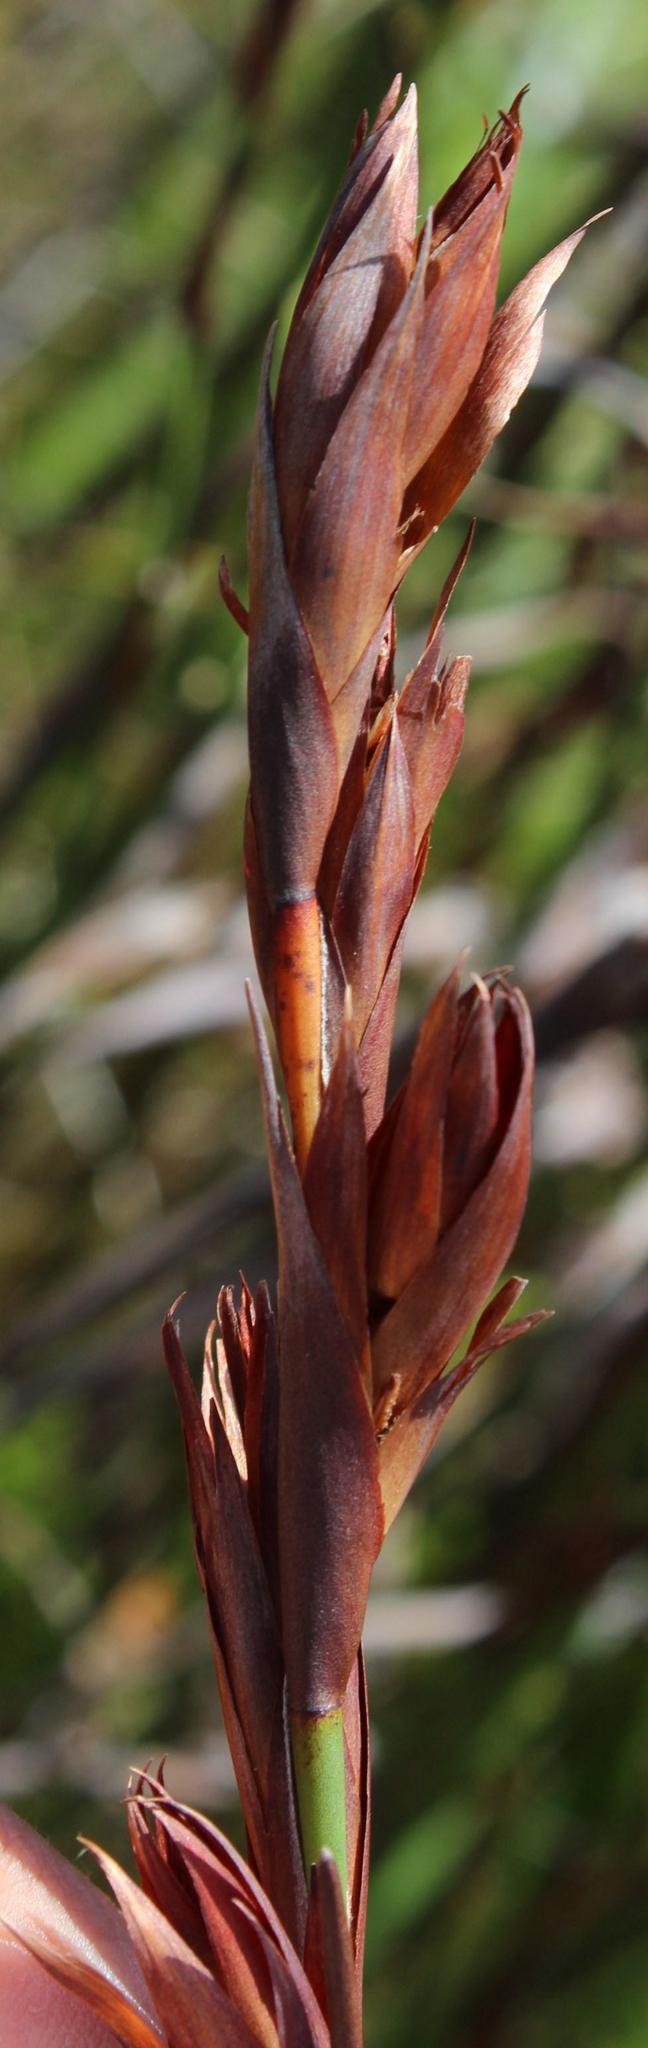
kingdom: Plantae
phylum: Tracheophyta
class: Liliopsida
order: Poales
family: Restionaceae
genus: Platycaulos
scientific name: Platycaulos major
